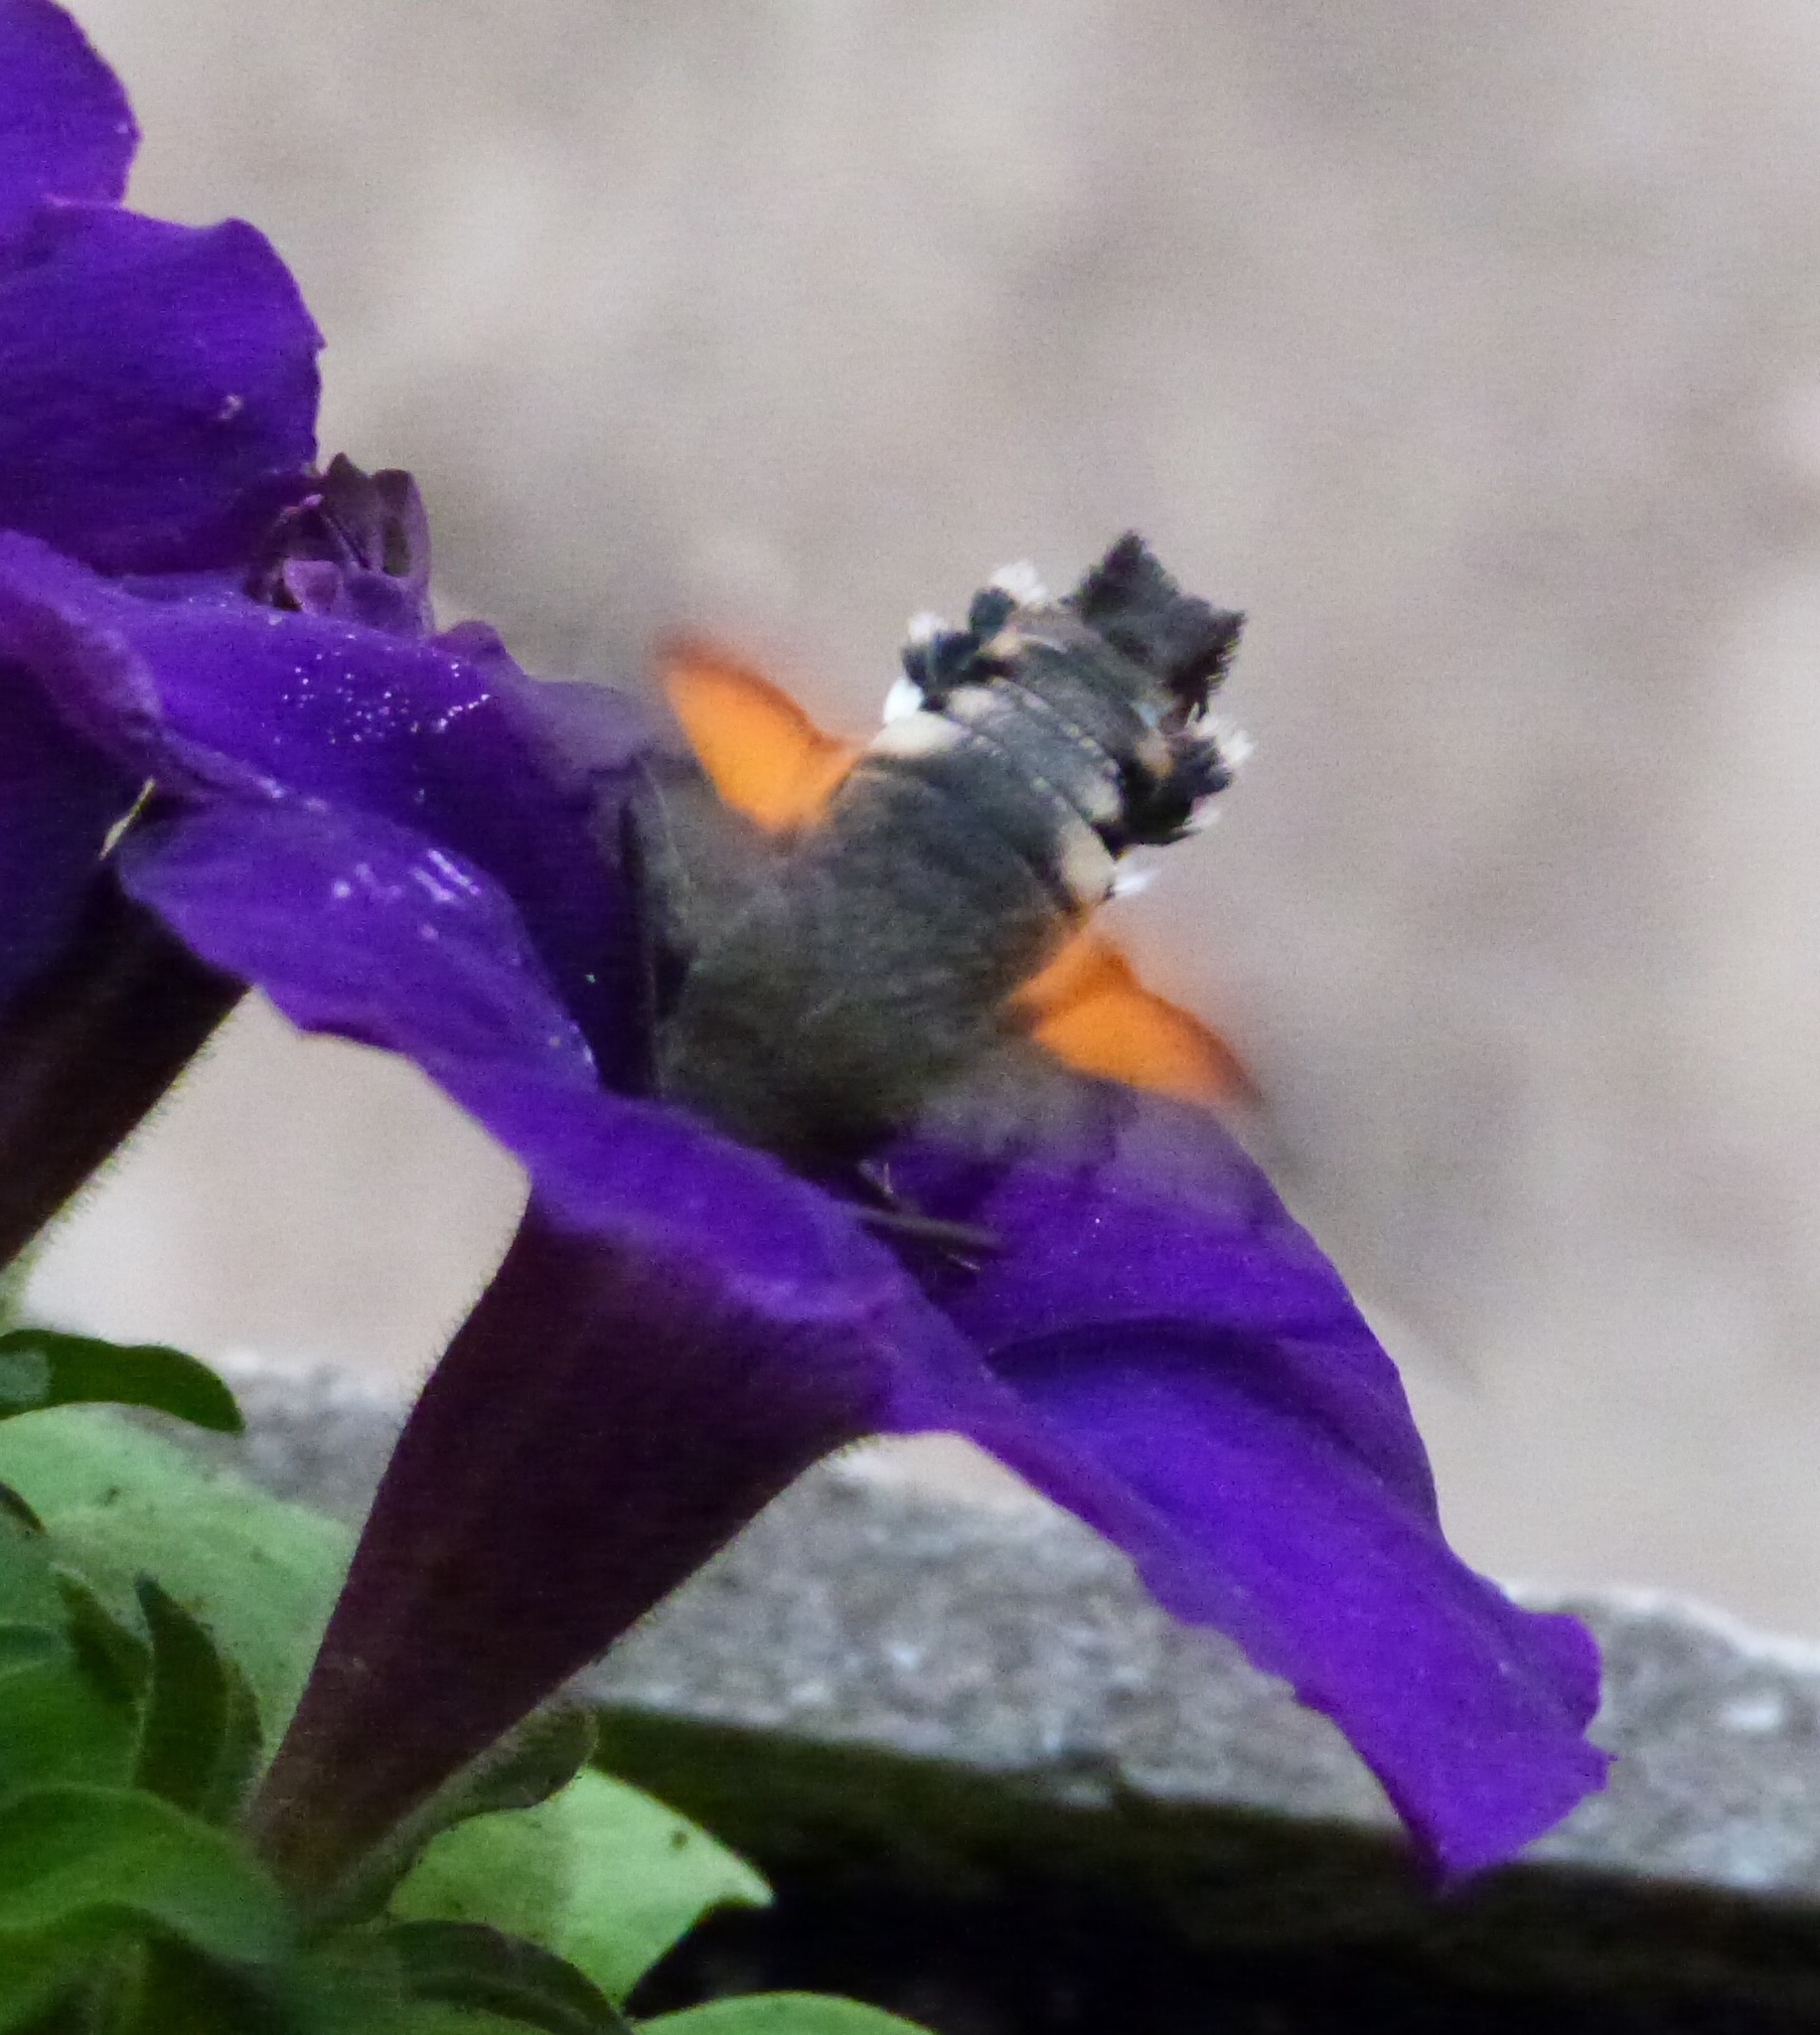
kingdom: Animalia
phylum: Arthropoda
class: Insecta
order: Lepidoptera
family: Sphingidae
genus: Macroglossum
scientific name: Macroglossum stellatarum
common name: Humming-bird hawk-moth
